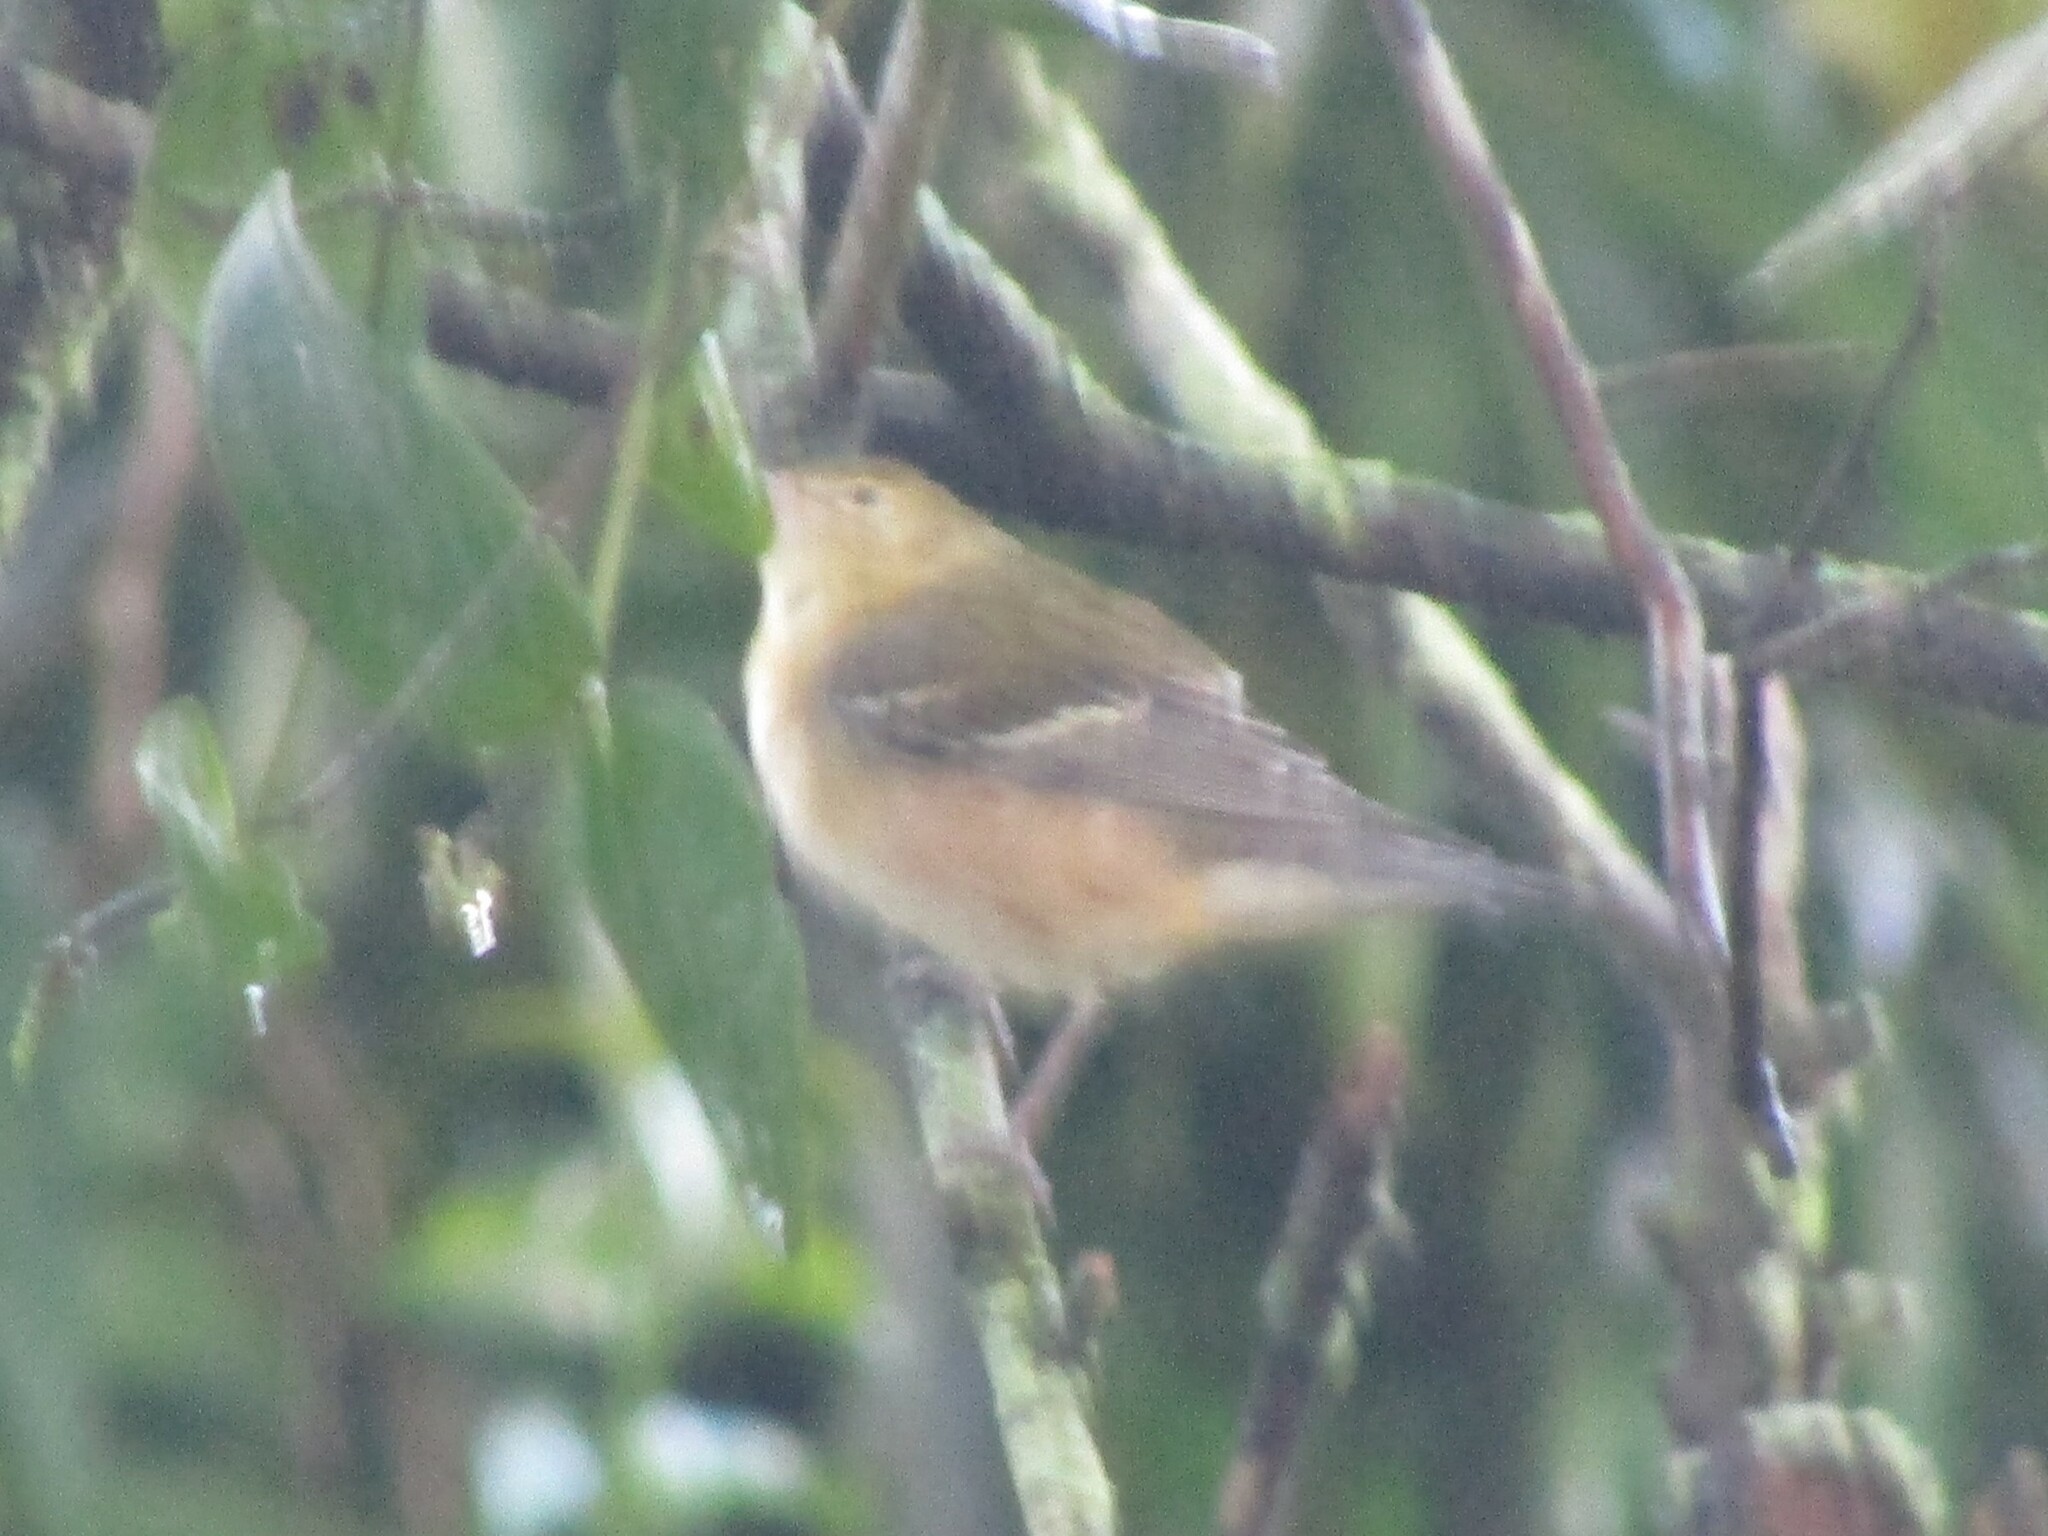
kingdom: Animalia
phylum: Chordata
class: Aves
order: Passeriformes
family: Parulidae
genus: Setophaga
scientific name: Setophaga castanea
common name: Bay-breasted warbler
